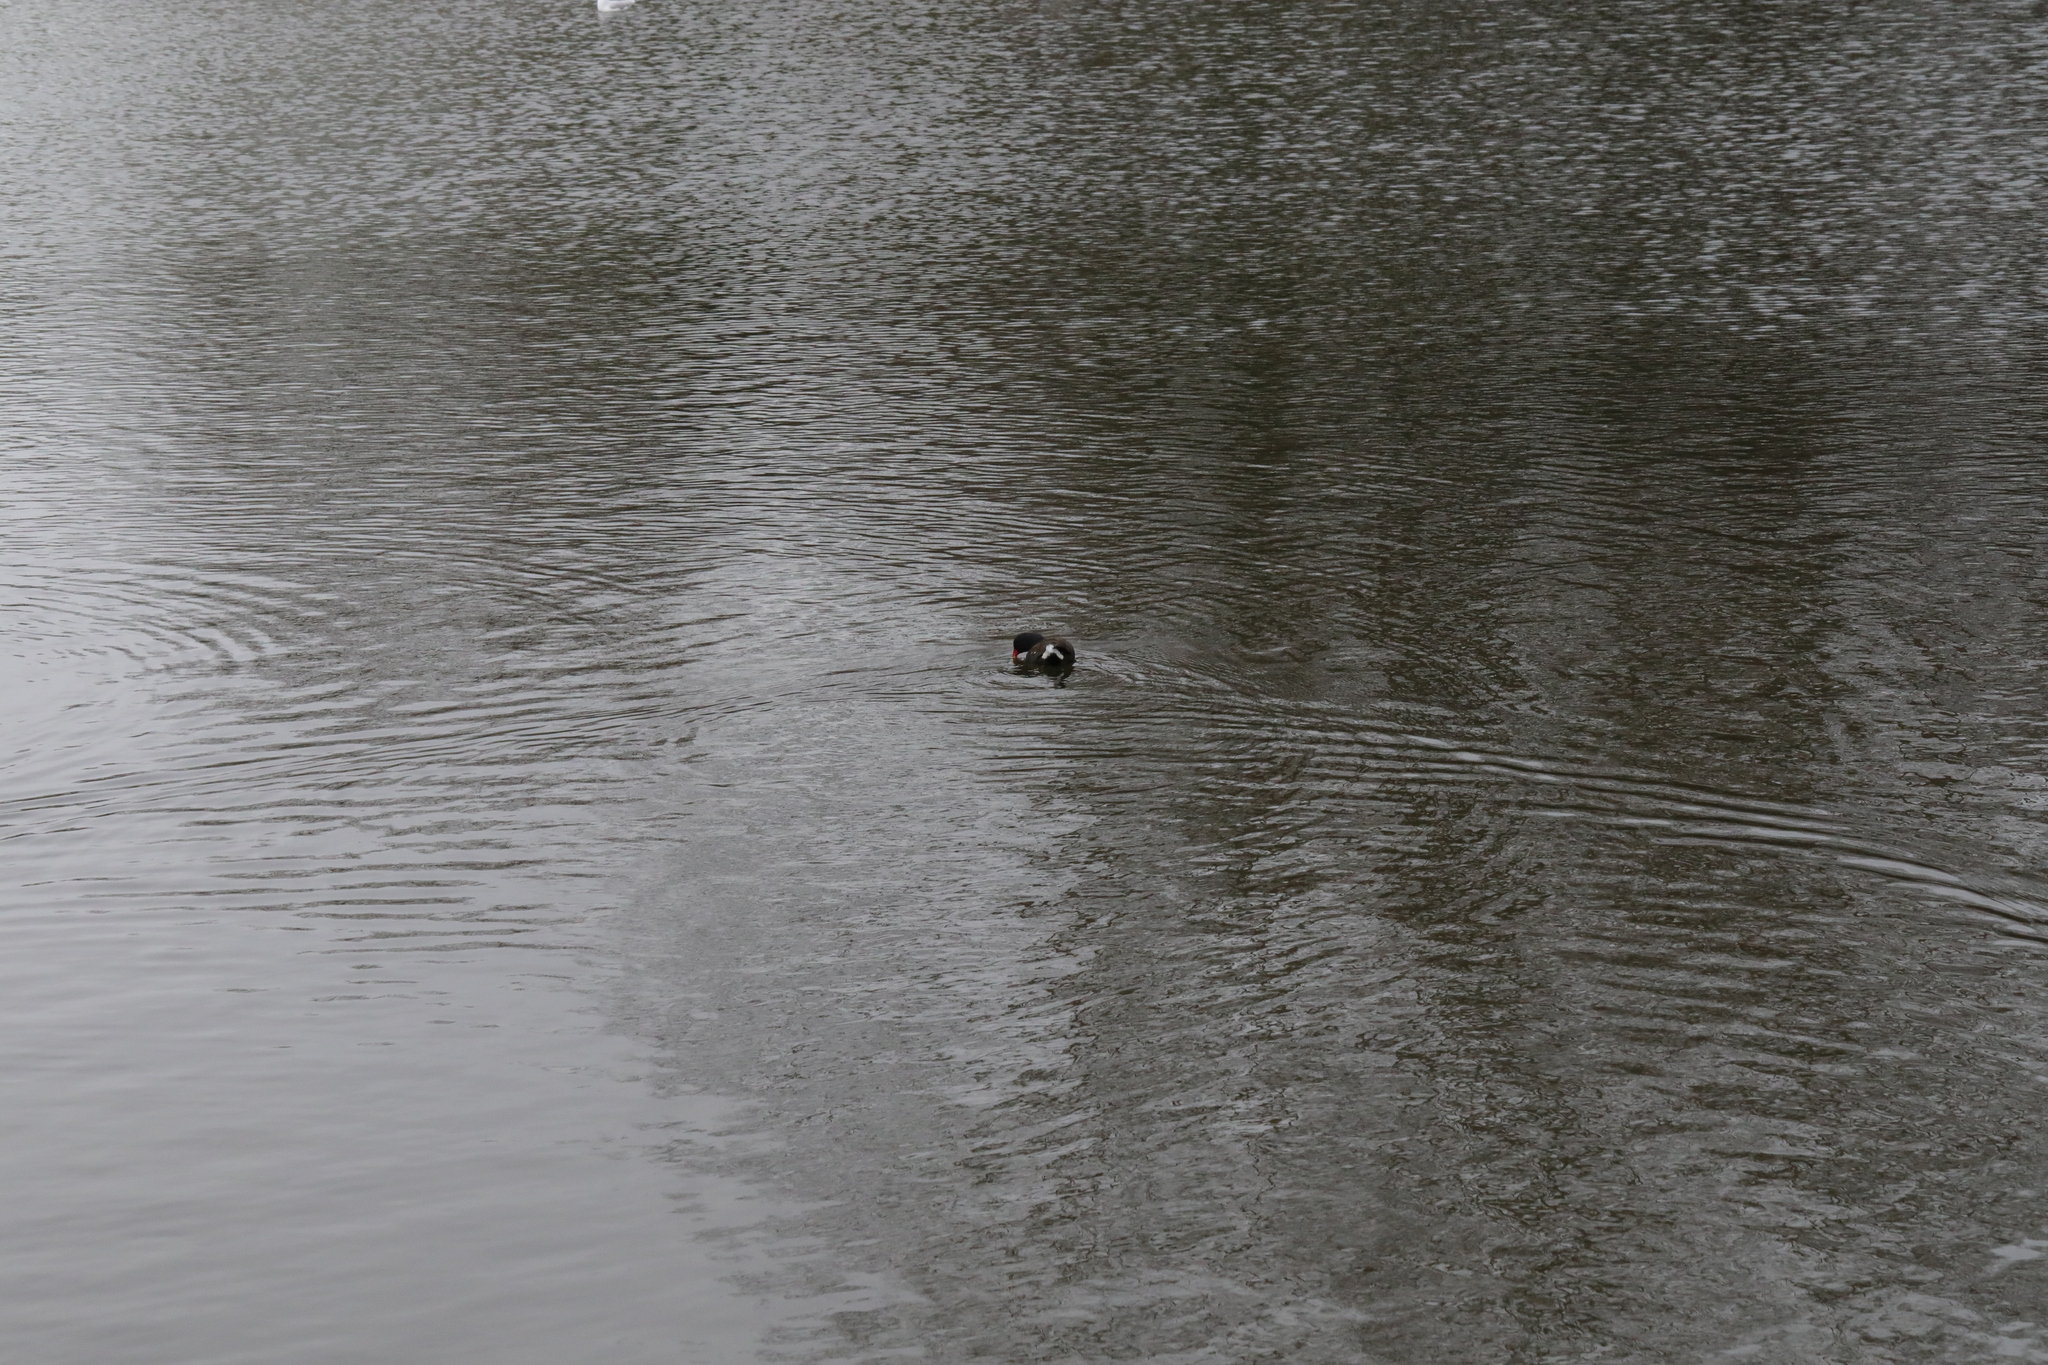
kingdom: Animalia
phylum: Chordata
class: Aves
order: Gruiformes
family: Rallidae
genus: Gallinula
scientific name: Gallinula chloropus
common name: Common moorhen
